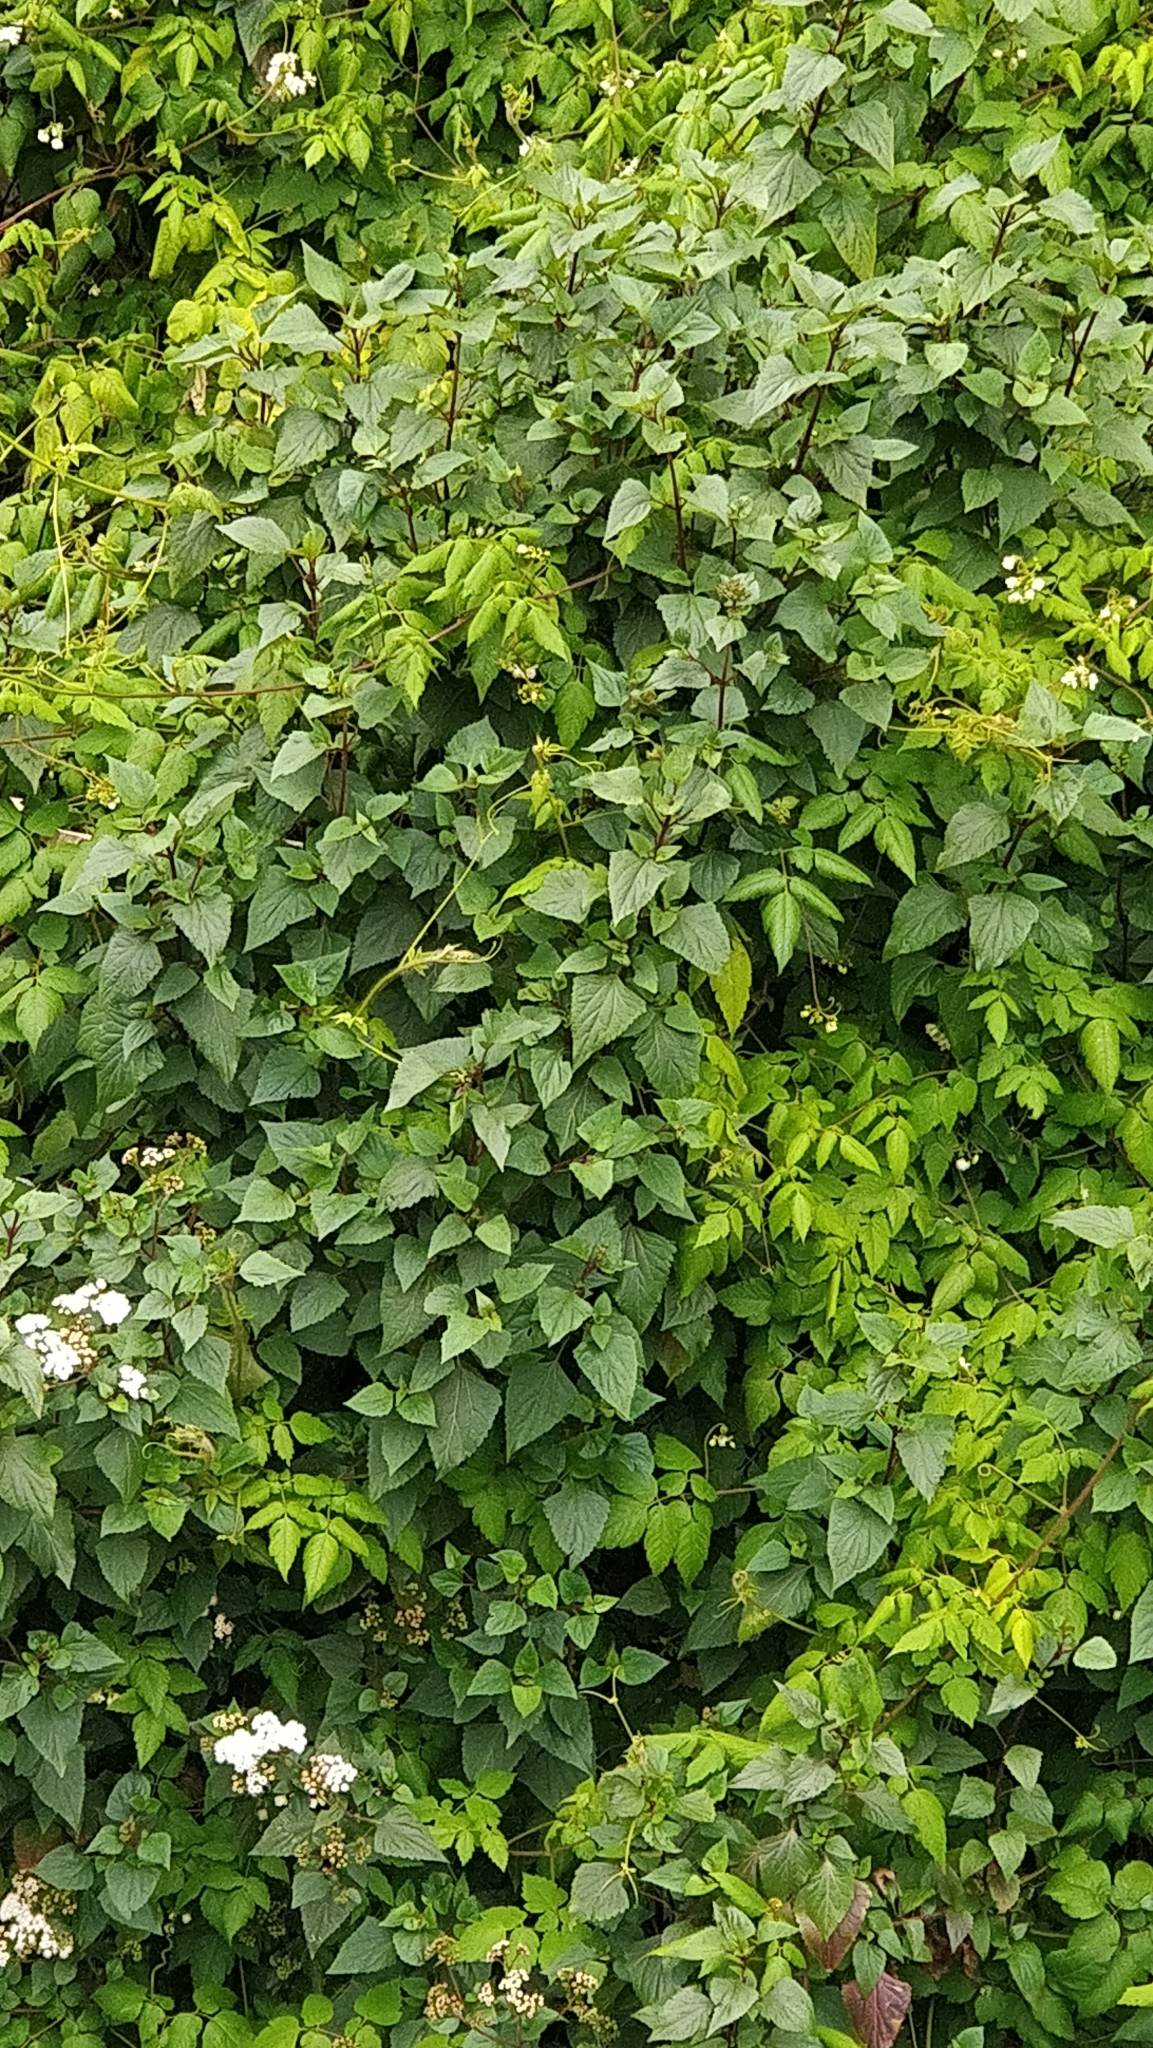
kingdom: Plantae
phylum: Tracheophyta
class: Magnoliopsida
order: Asterales
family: Asteraceae
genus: Ageratina
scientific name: Ageratina adenophora
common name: Sticky snakeroot
